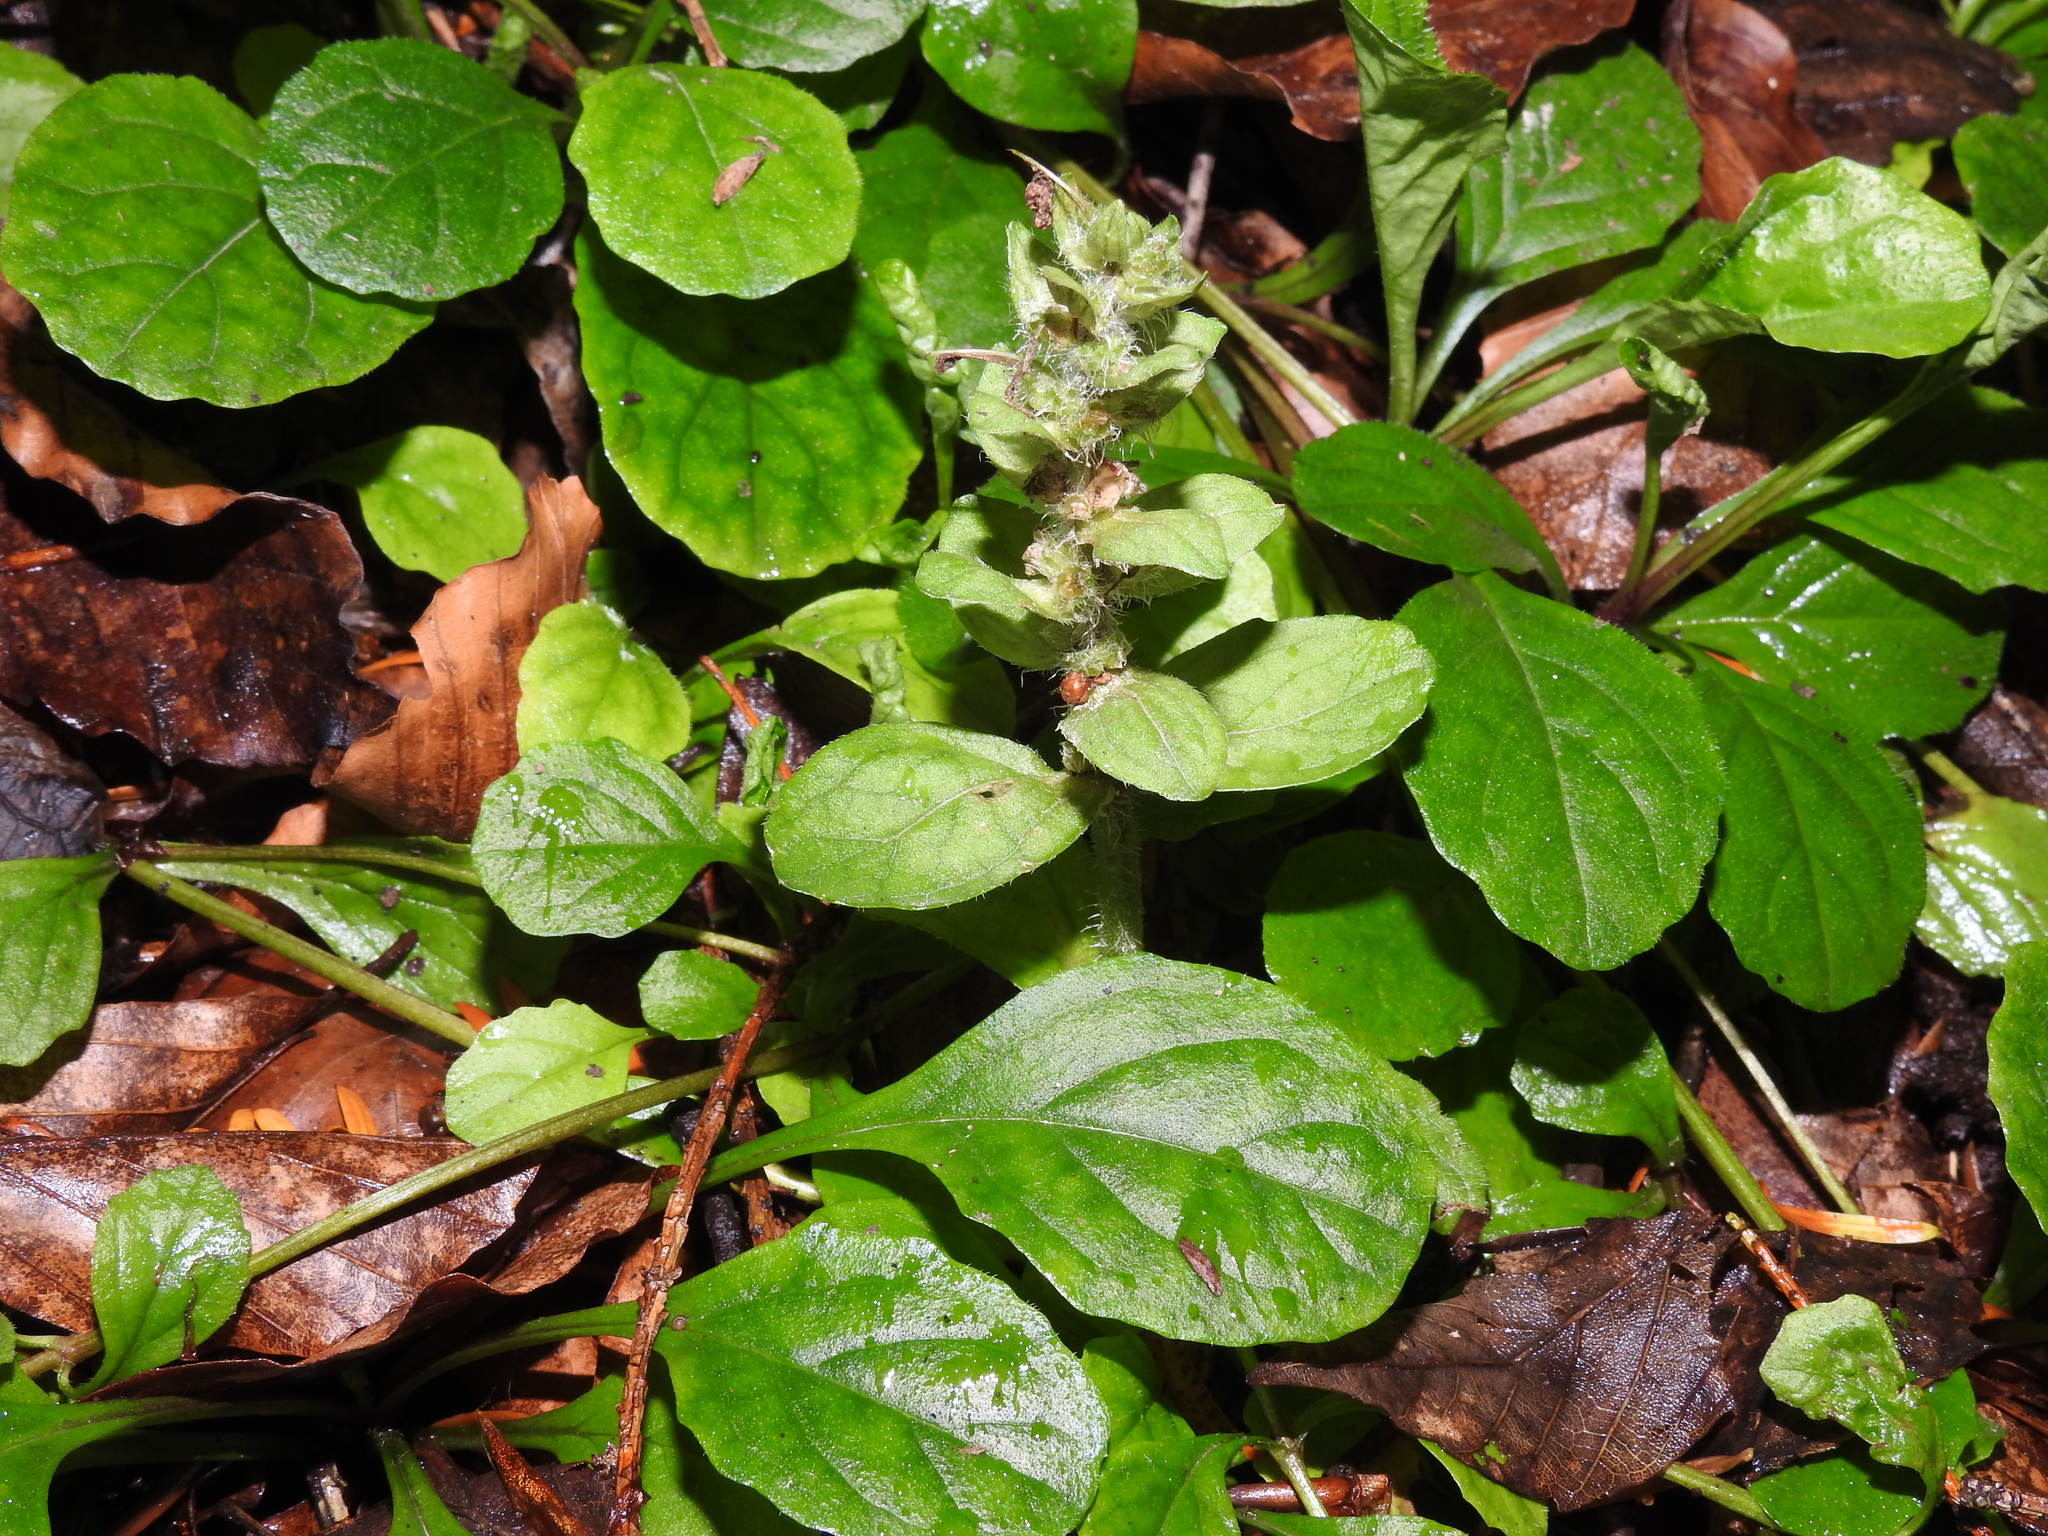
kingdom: Plantae
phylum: Tracheophyta
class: Magnoliopsida
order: Lamiales
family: Lamiaceae
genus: Ajuga
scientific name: Ajuga reptans
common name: Bugle
